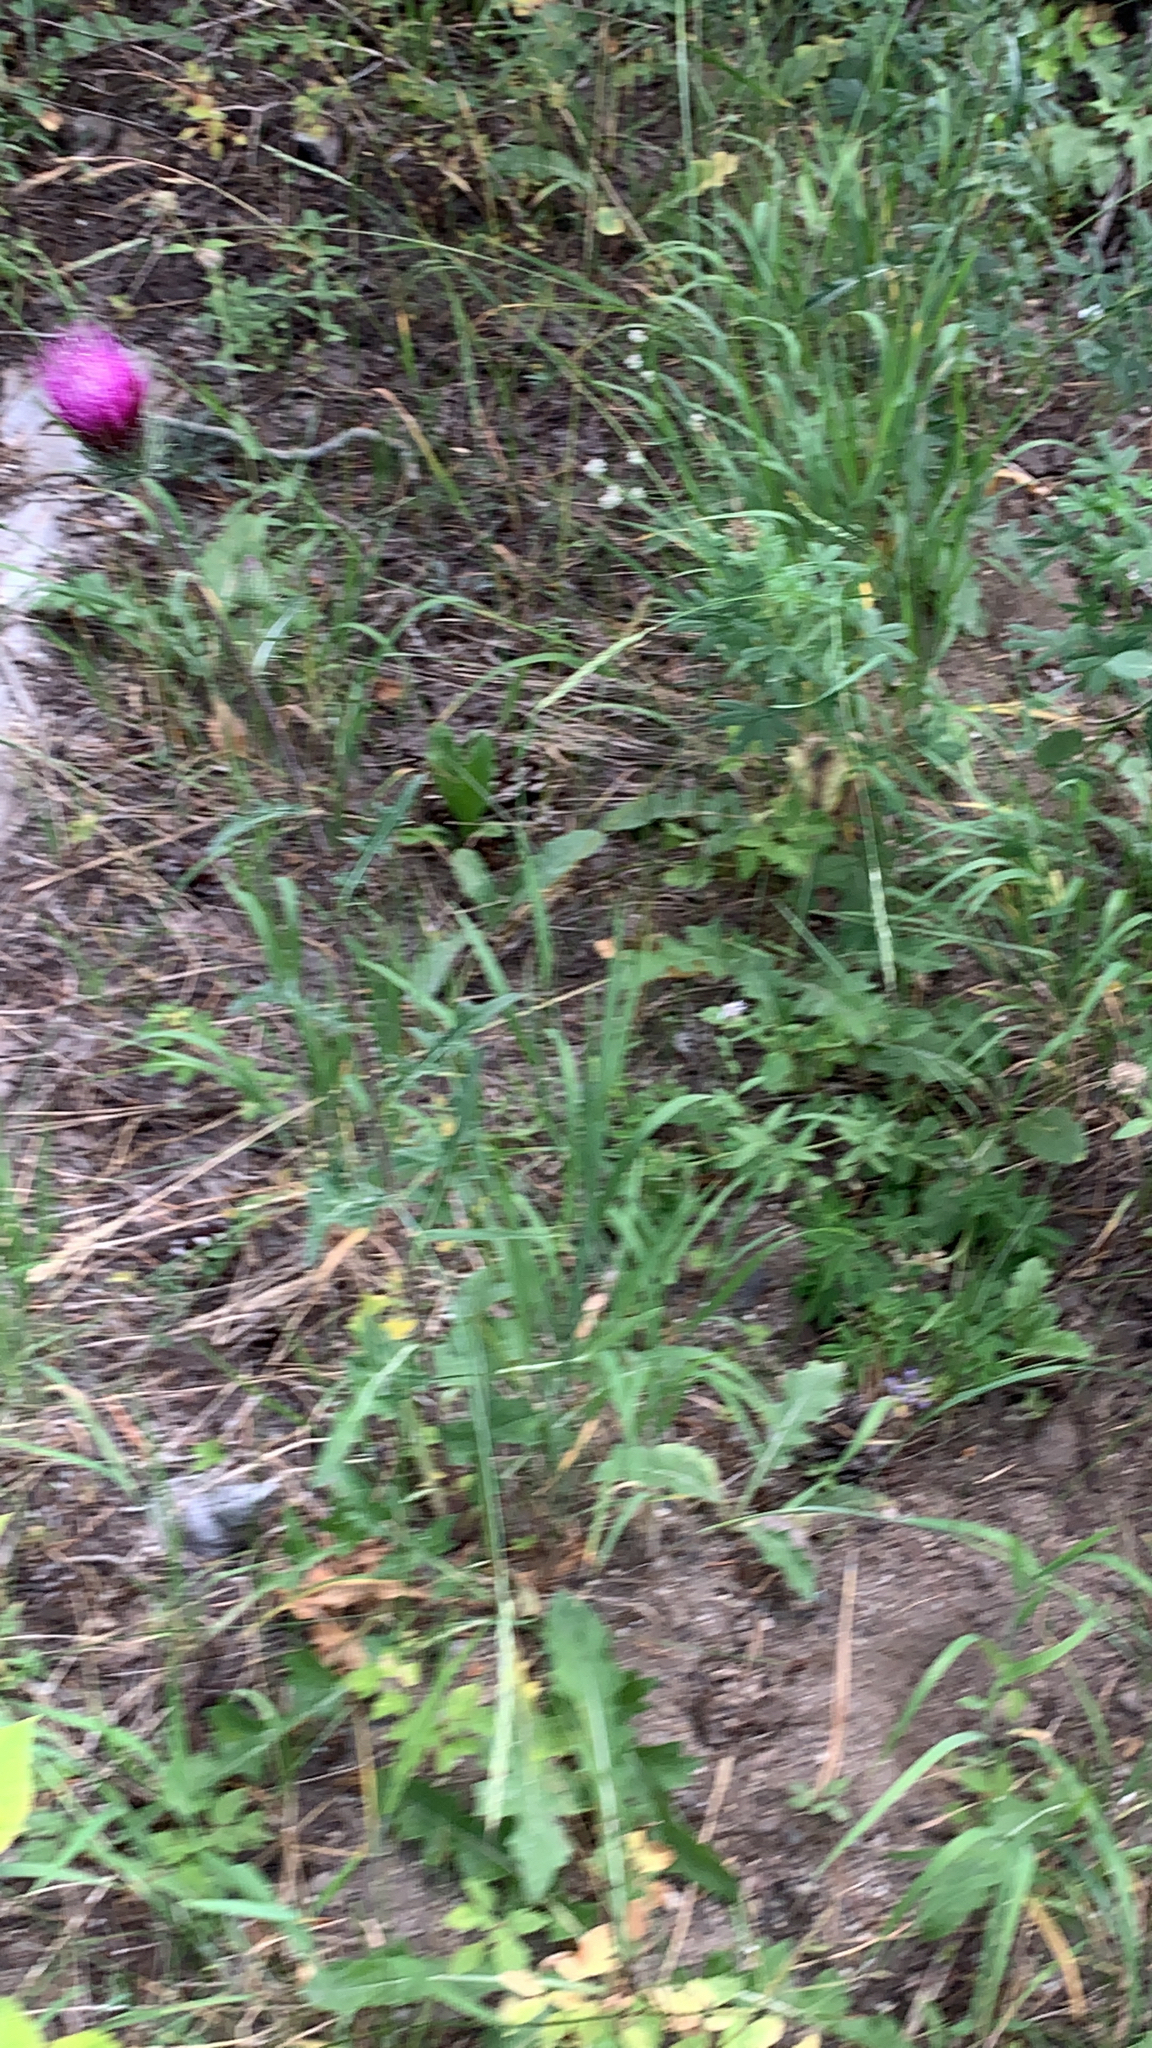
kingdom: Plantae
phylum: Tracheophyta
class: Magnoliopsida
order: Asterales
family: Asteraceae
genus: Cirsium
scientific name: Cirsium andersonii
